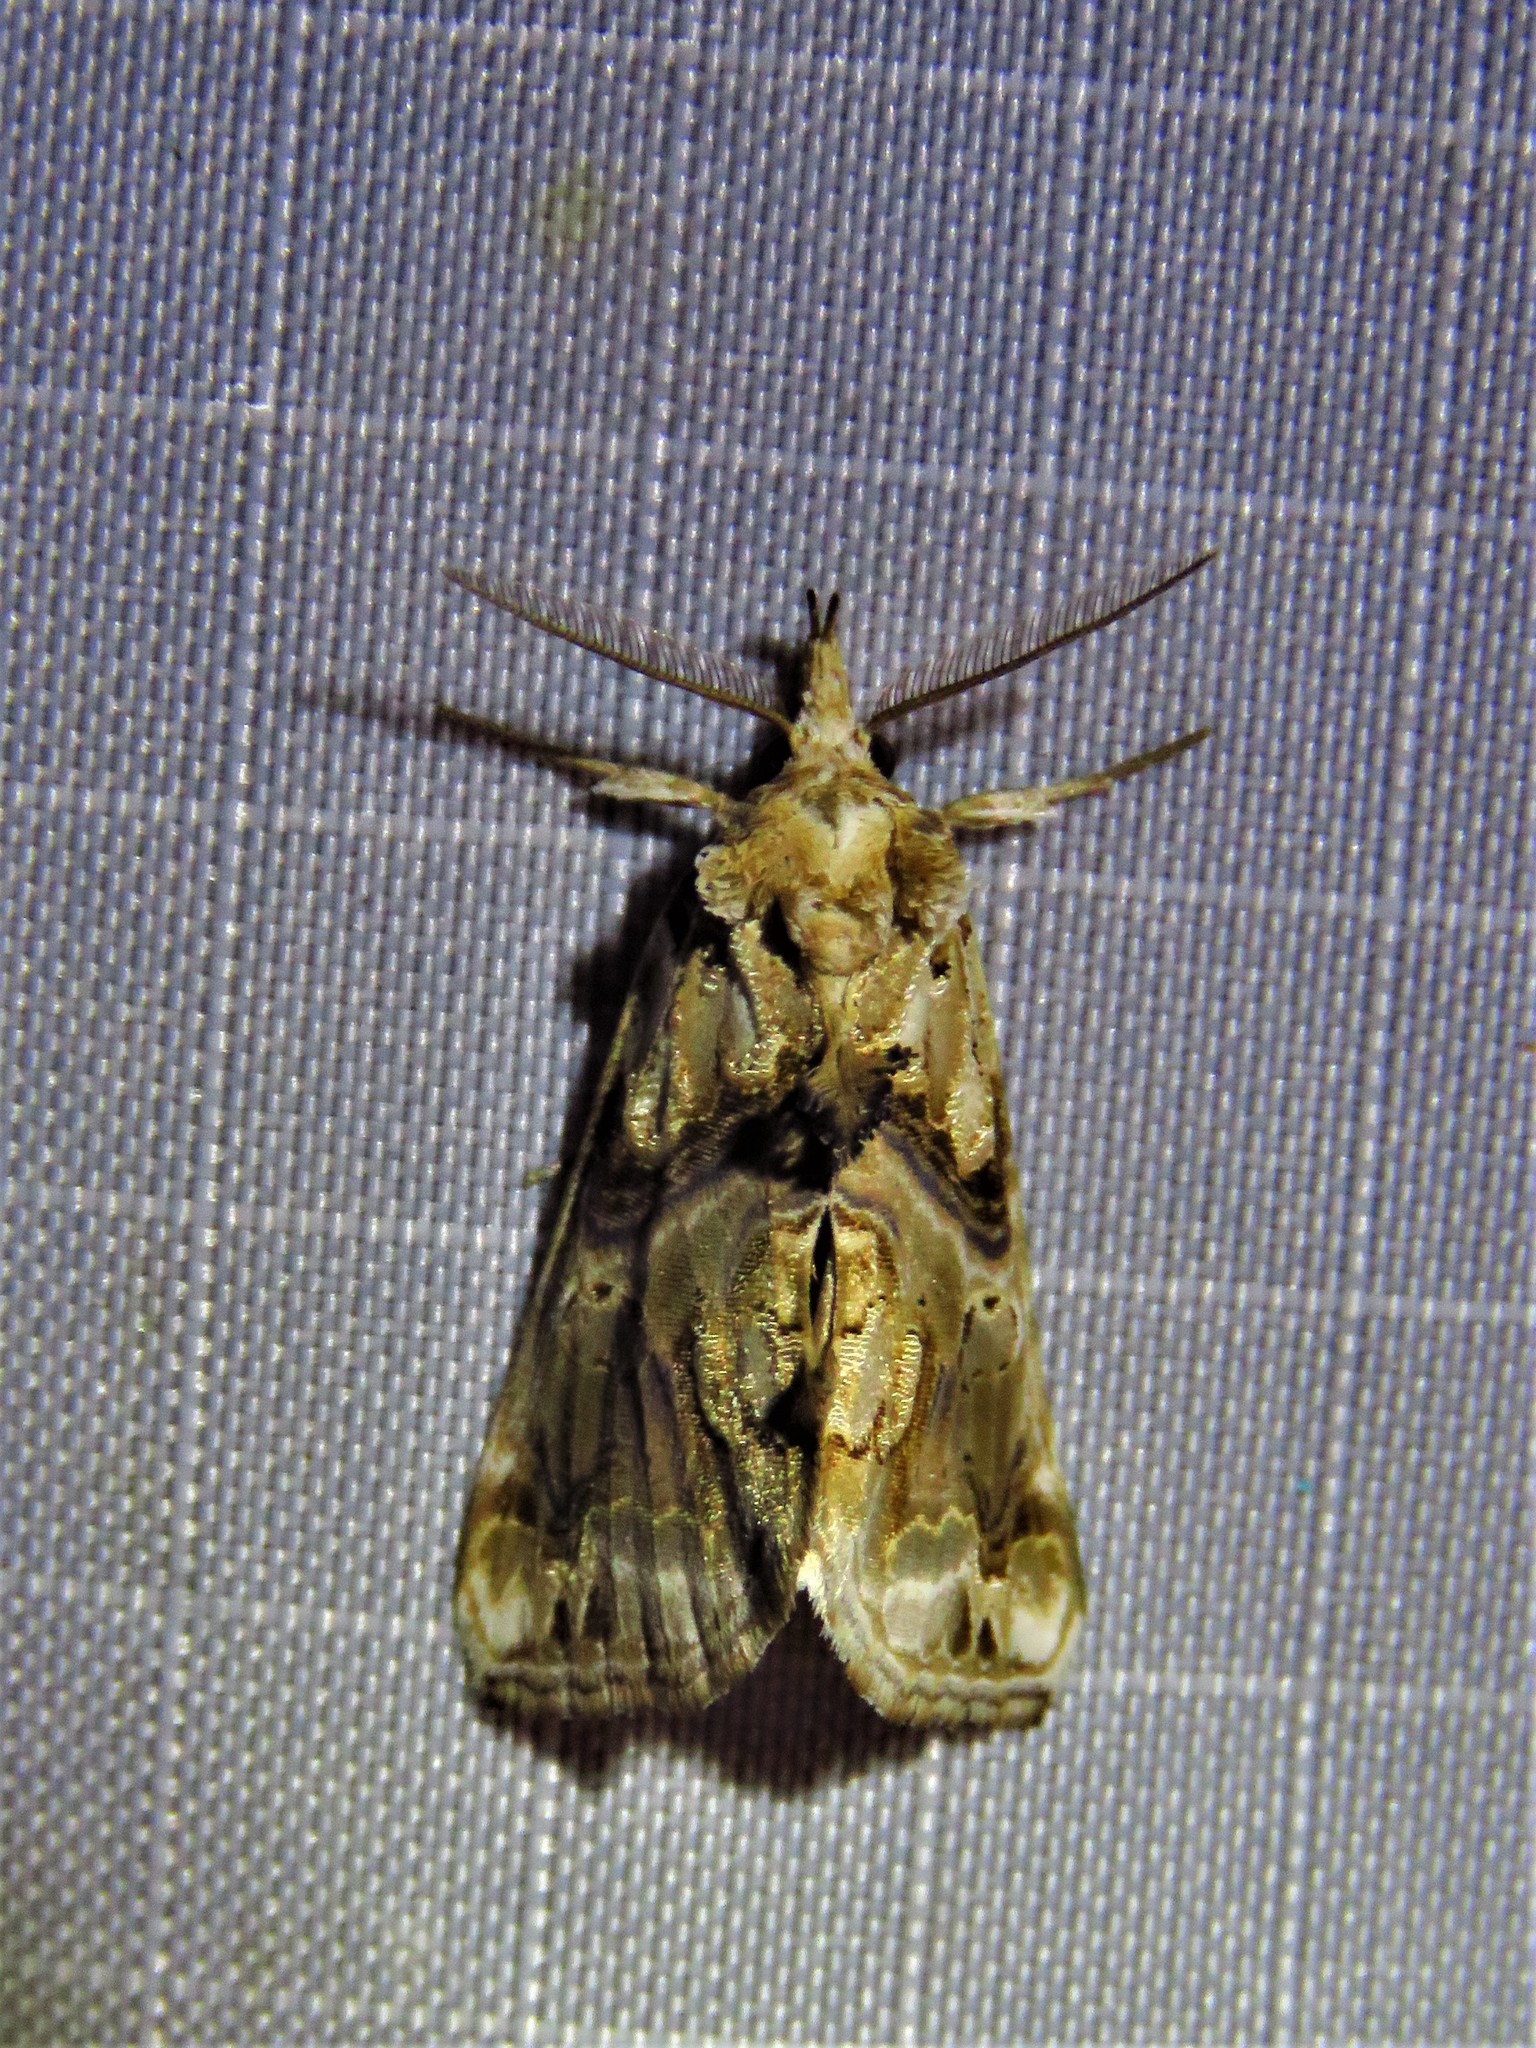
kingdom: Animalia
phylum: Arthropoda
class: Insecta
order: Lepidoptera
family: Erebidae
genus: Plusiodonta
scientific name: Plusiodonta compressipalpis
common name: Moonseed moth
